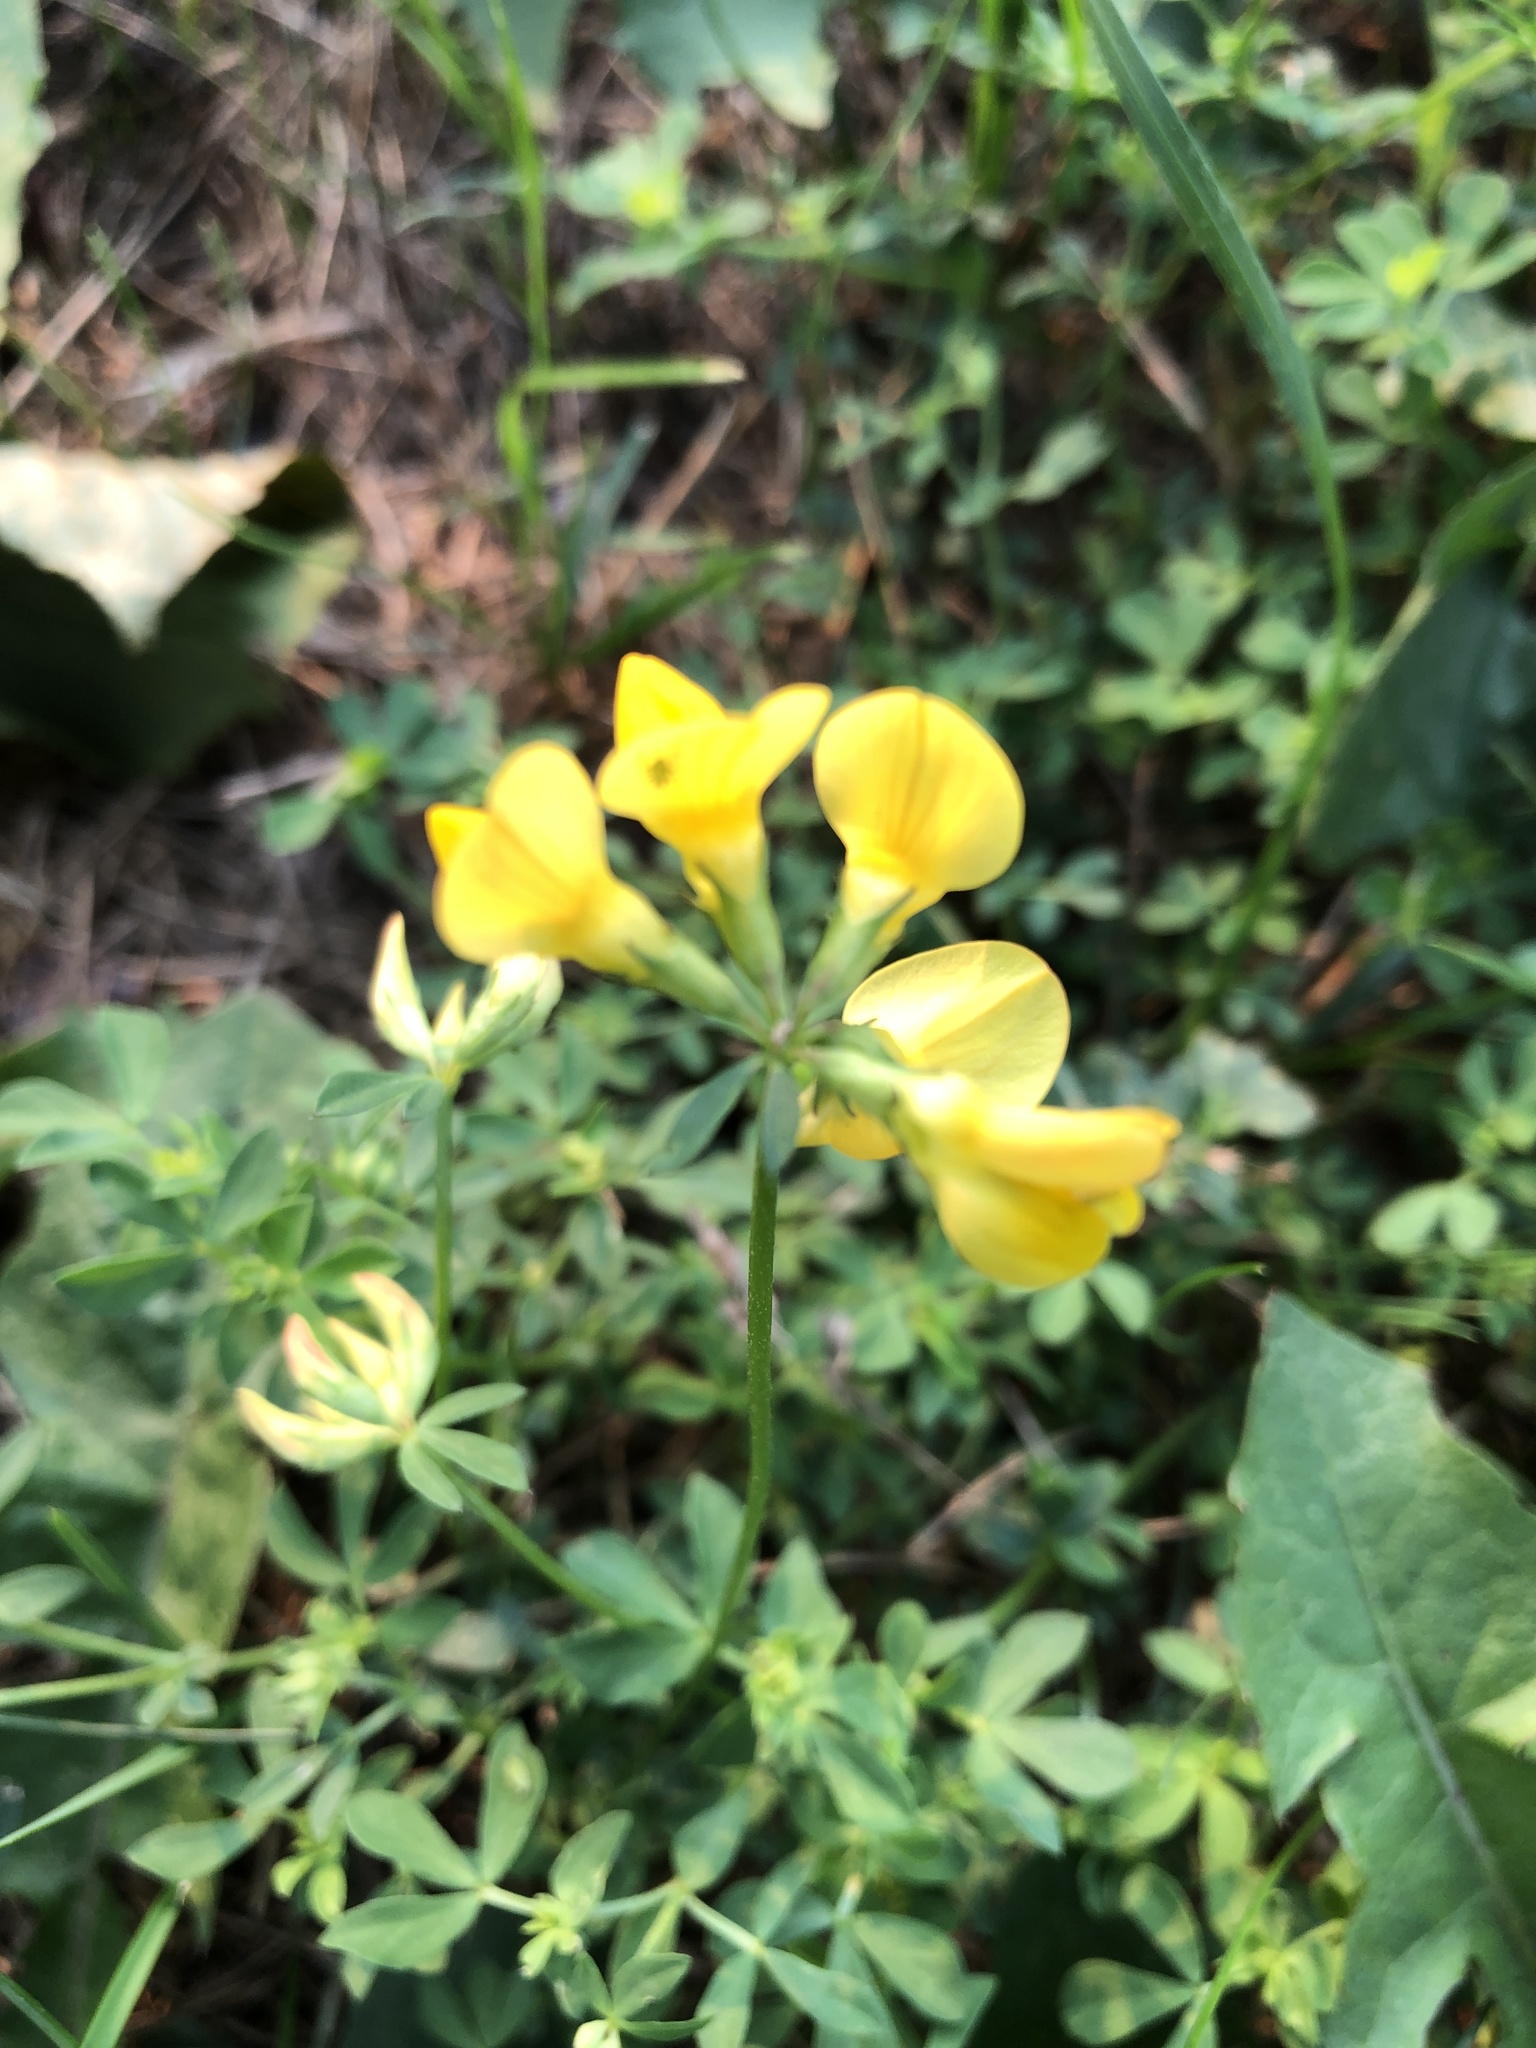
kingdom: Plantae
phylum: Tracheophyta
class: Magnoliopsida
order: Fabales
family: Fabaceae
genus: Lotus
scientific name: Lotus corniculatus
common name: Common bird's-foot-trefoil
